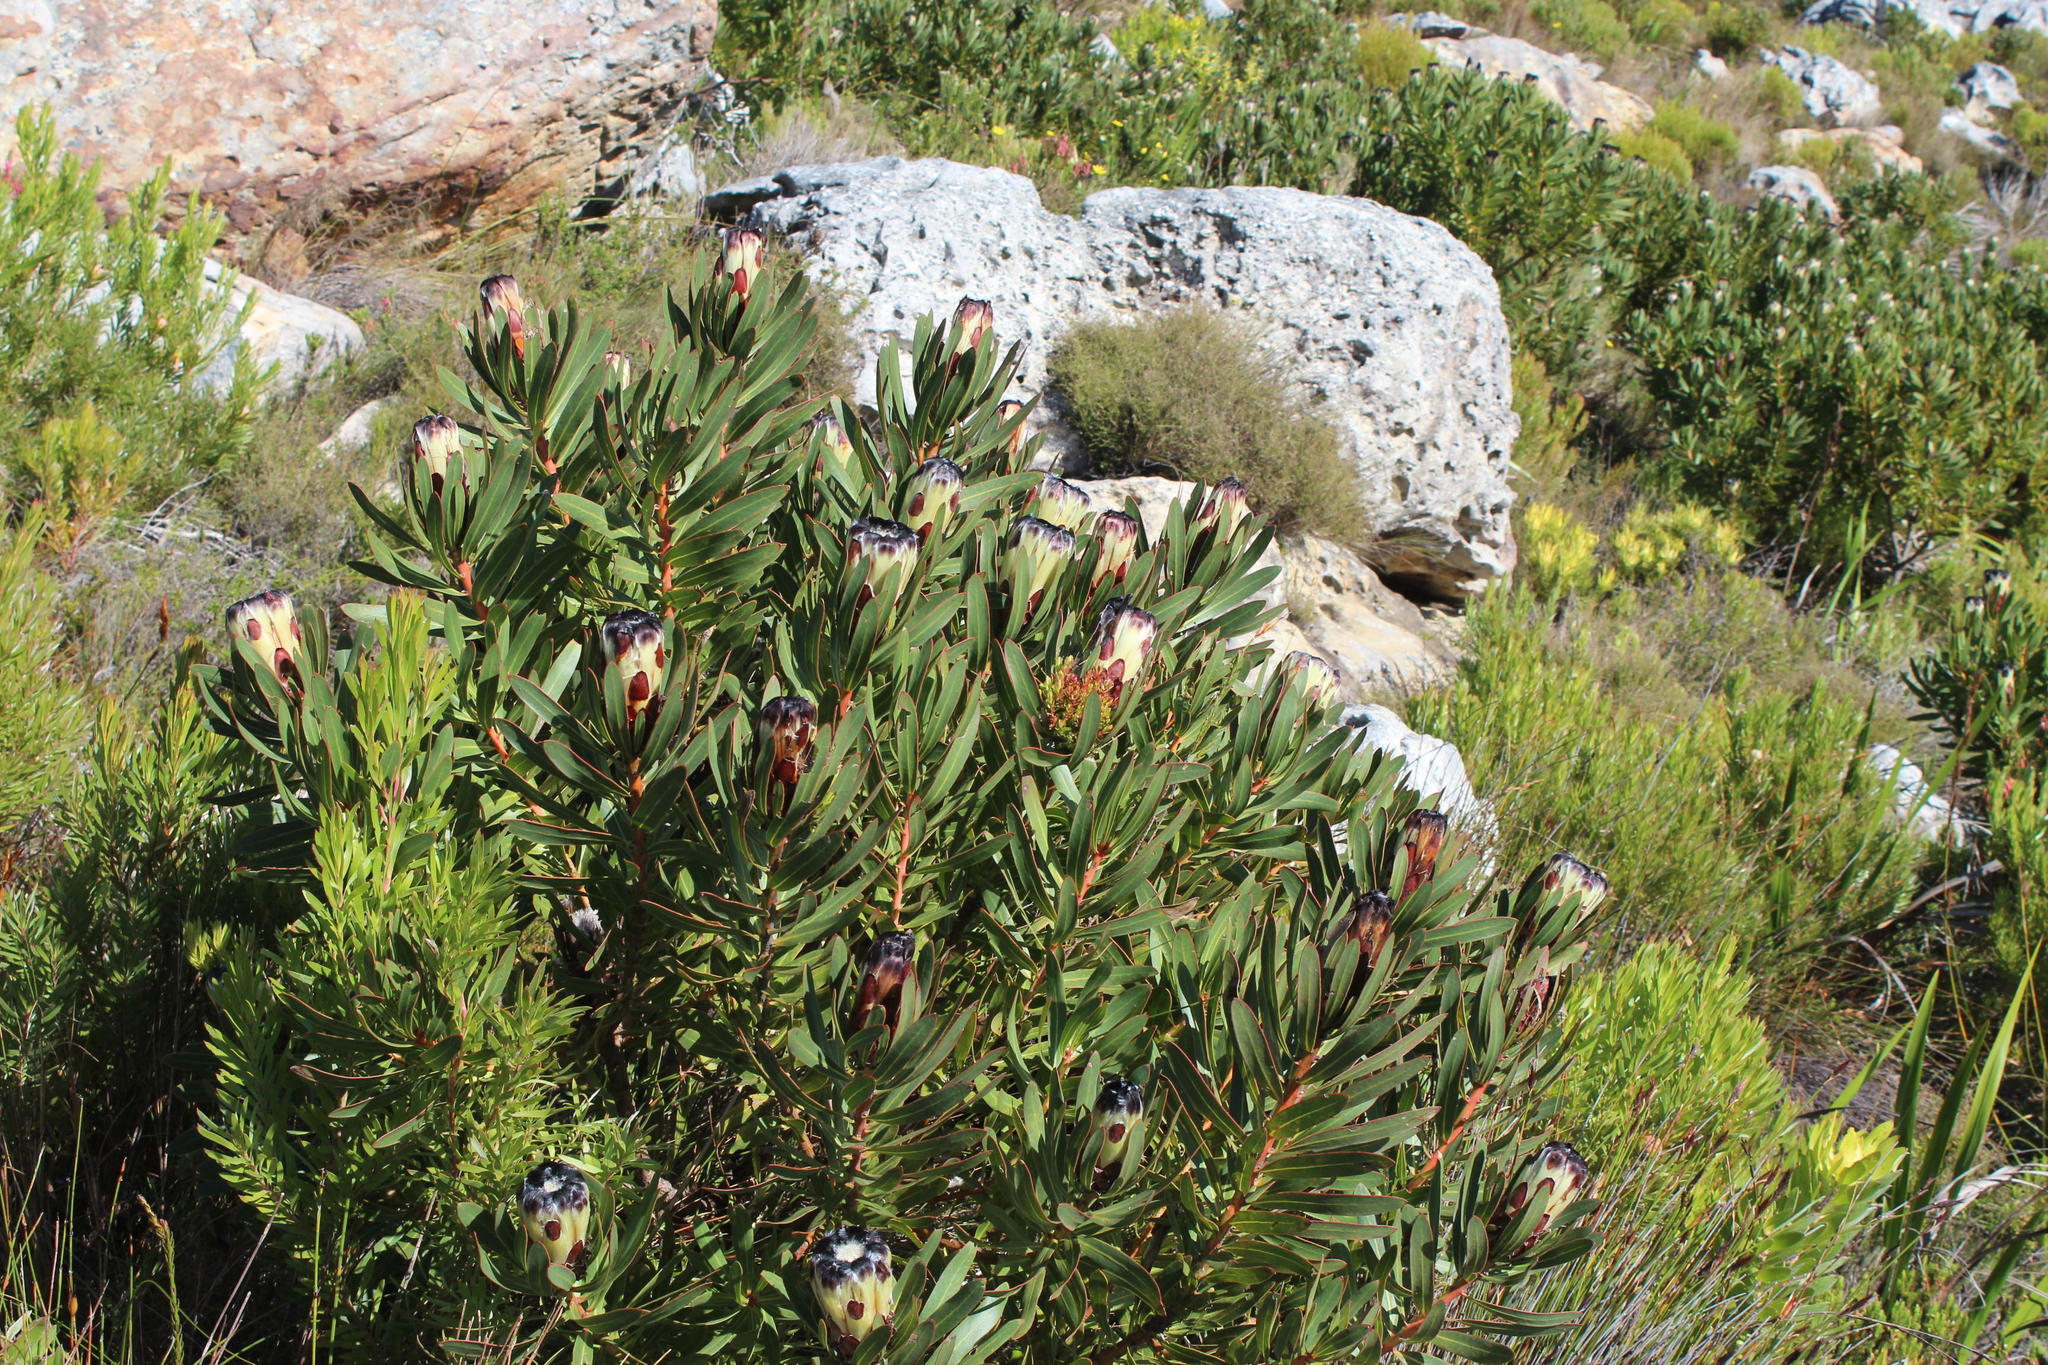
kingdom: Plantae
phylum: Tracheophyta
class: Magnoliopsida
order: Proteales
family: Proteaceae
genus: Protea
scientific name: Protea
